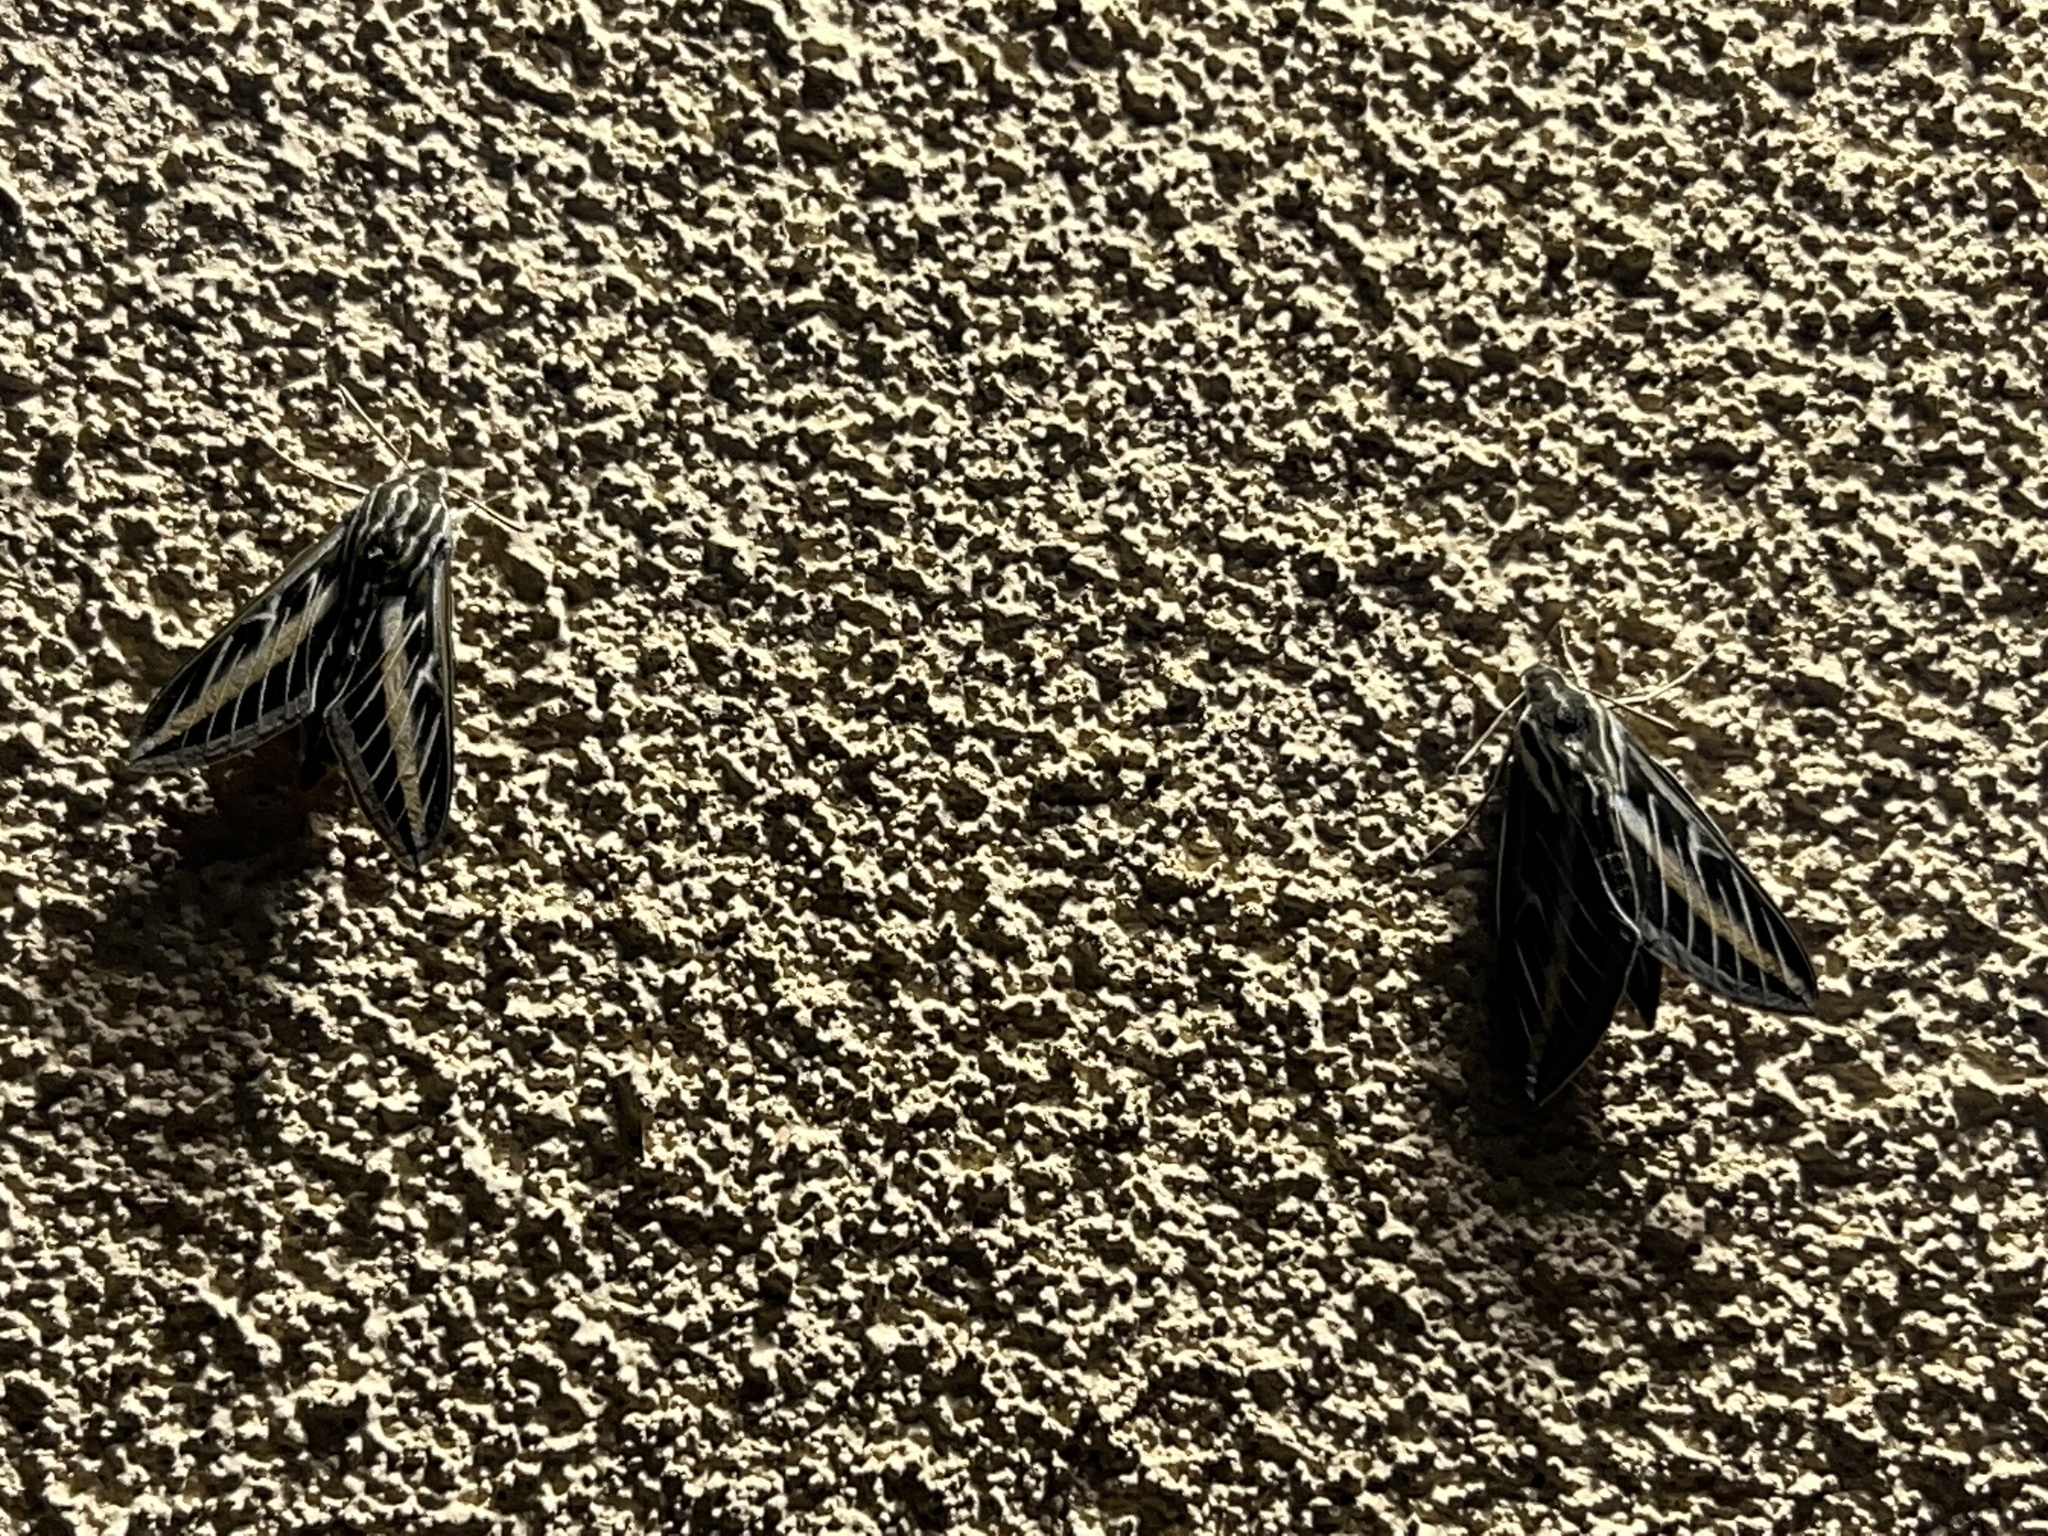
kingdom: Animalia
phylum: Arthropoda
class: Insecta
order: Lepidoptera
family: Sphingidae
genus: Hyles
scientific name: Hyles lineata
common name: White-lined sphinx
